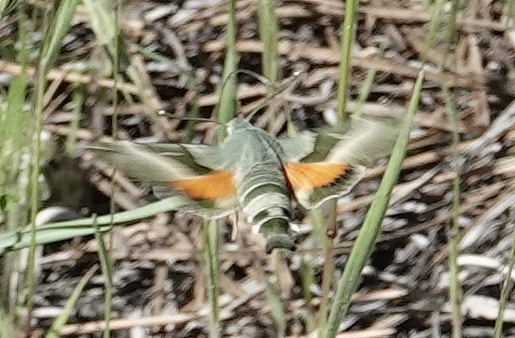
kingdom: Animalia
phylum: Arthropoda
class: Insecta
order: Lepidoptera
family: Sphingidae
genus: Proserpinus
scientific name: Proserpinus juanita
